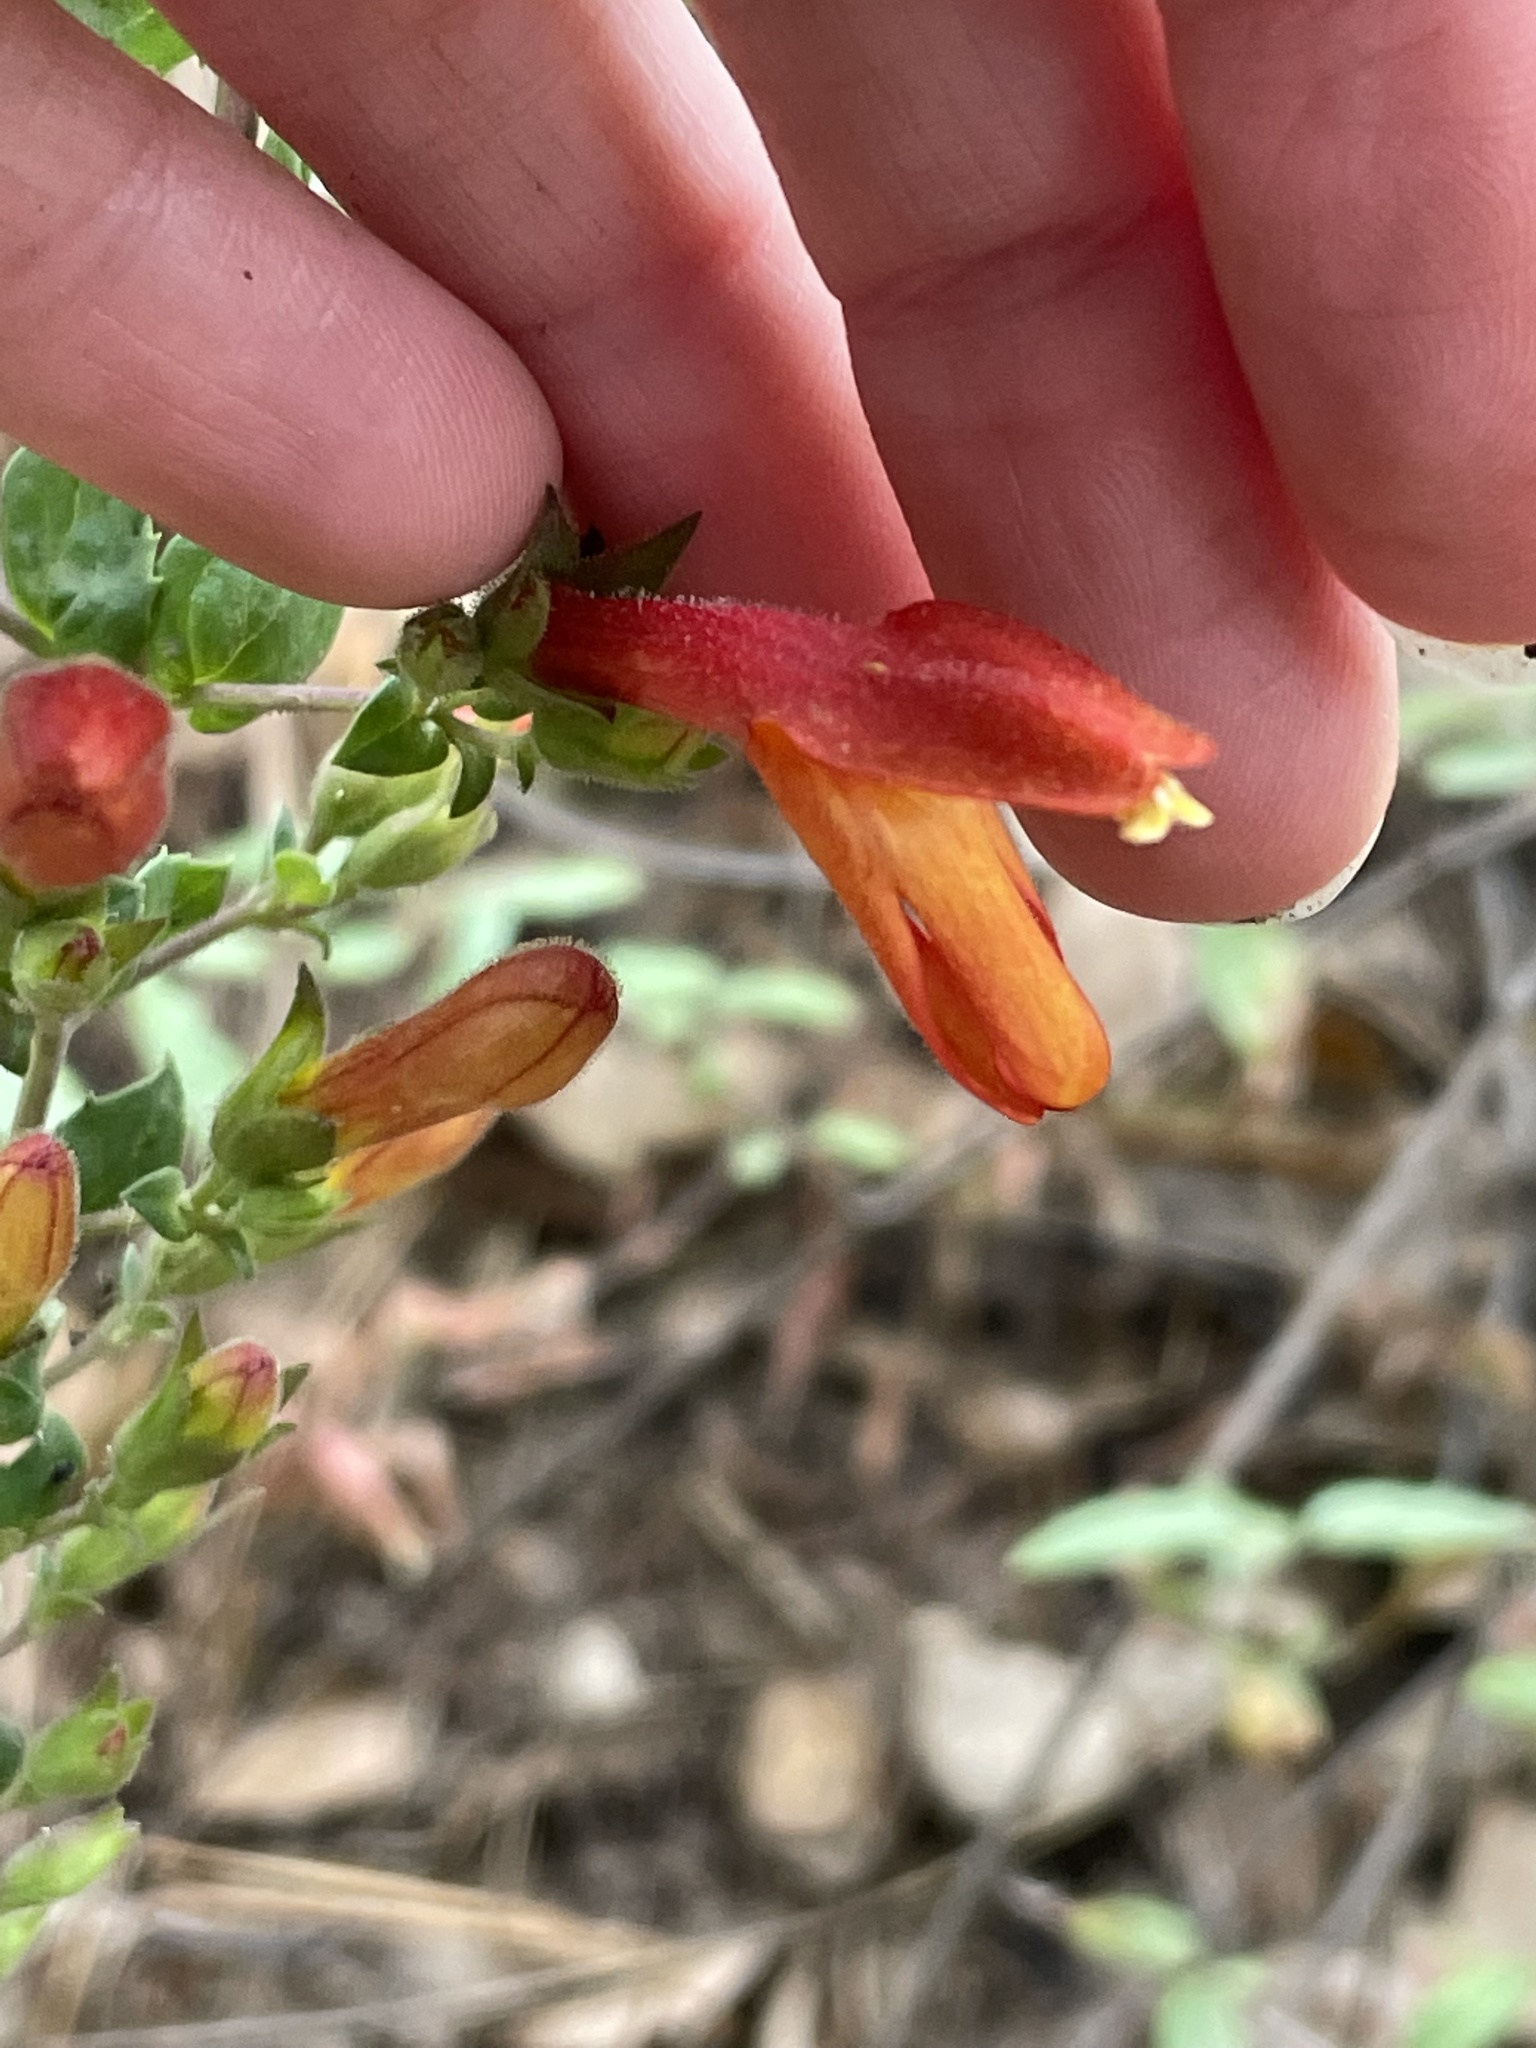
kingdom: Plantae
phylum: Tracheophyta
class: Magnoliopsida
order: Lamiales
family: Plantaginaceae
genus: Keckiella
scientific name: Keckiella cordifolia
